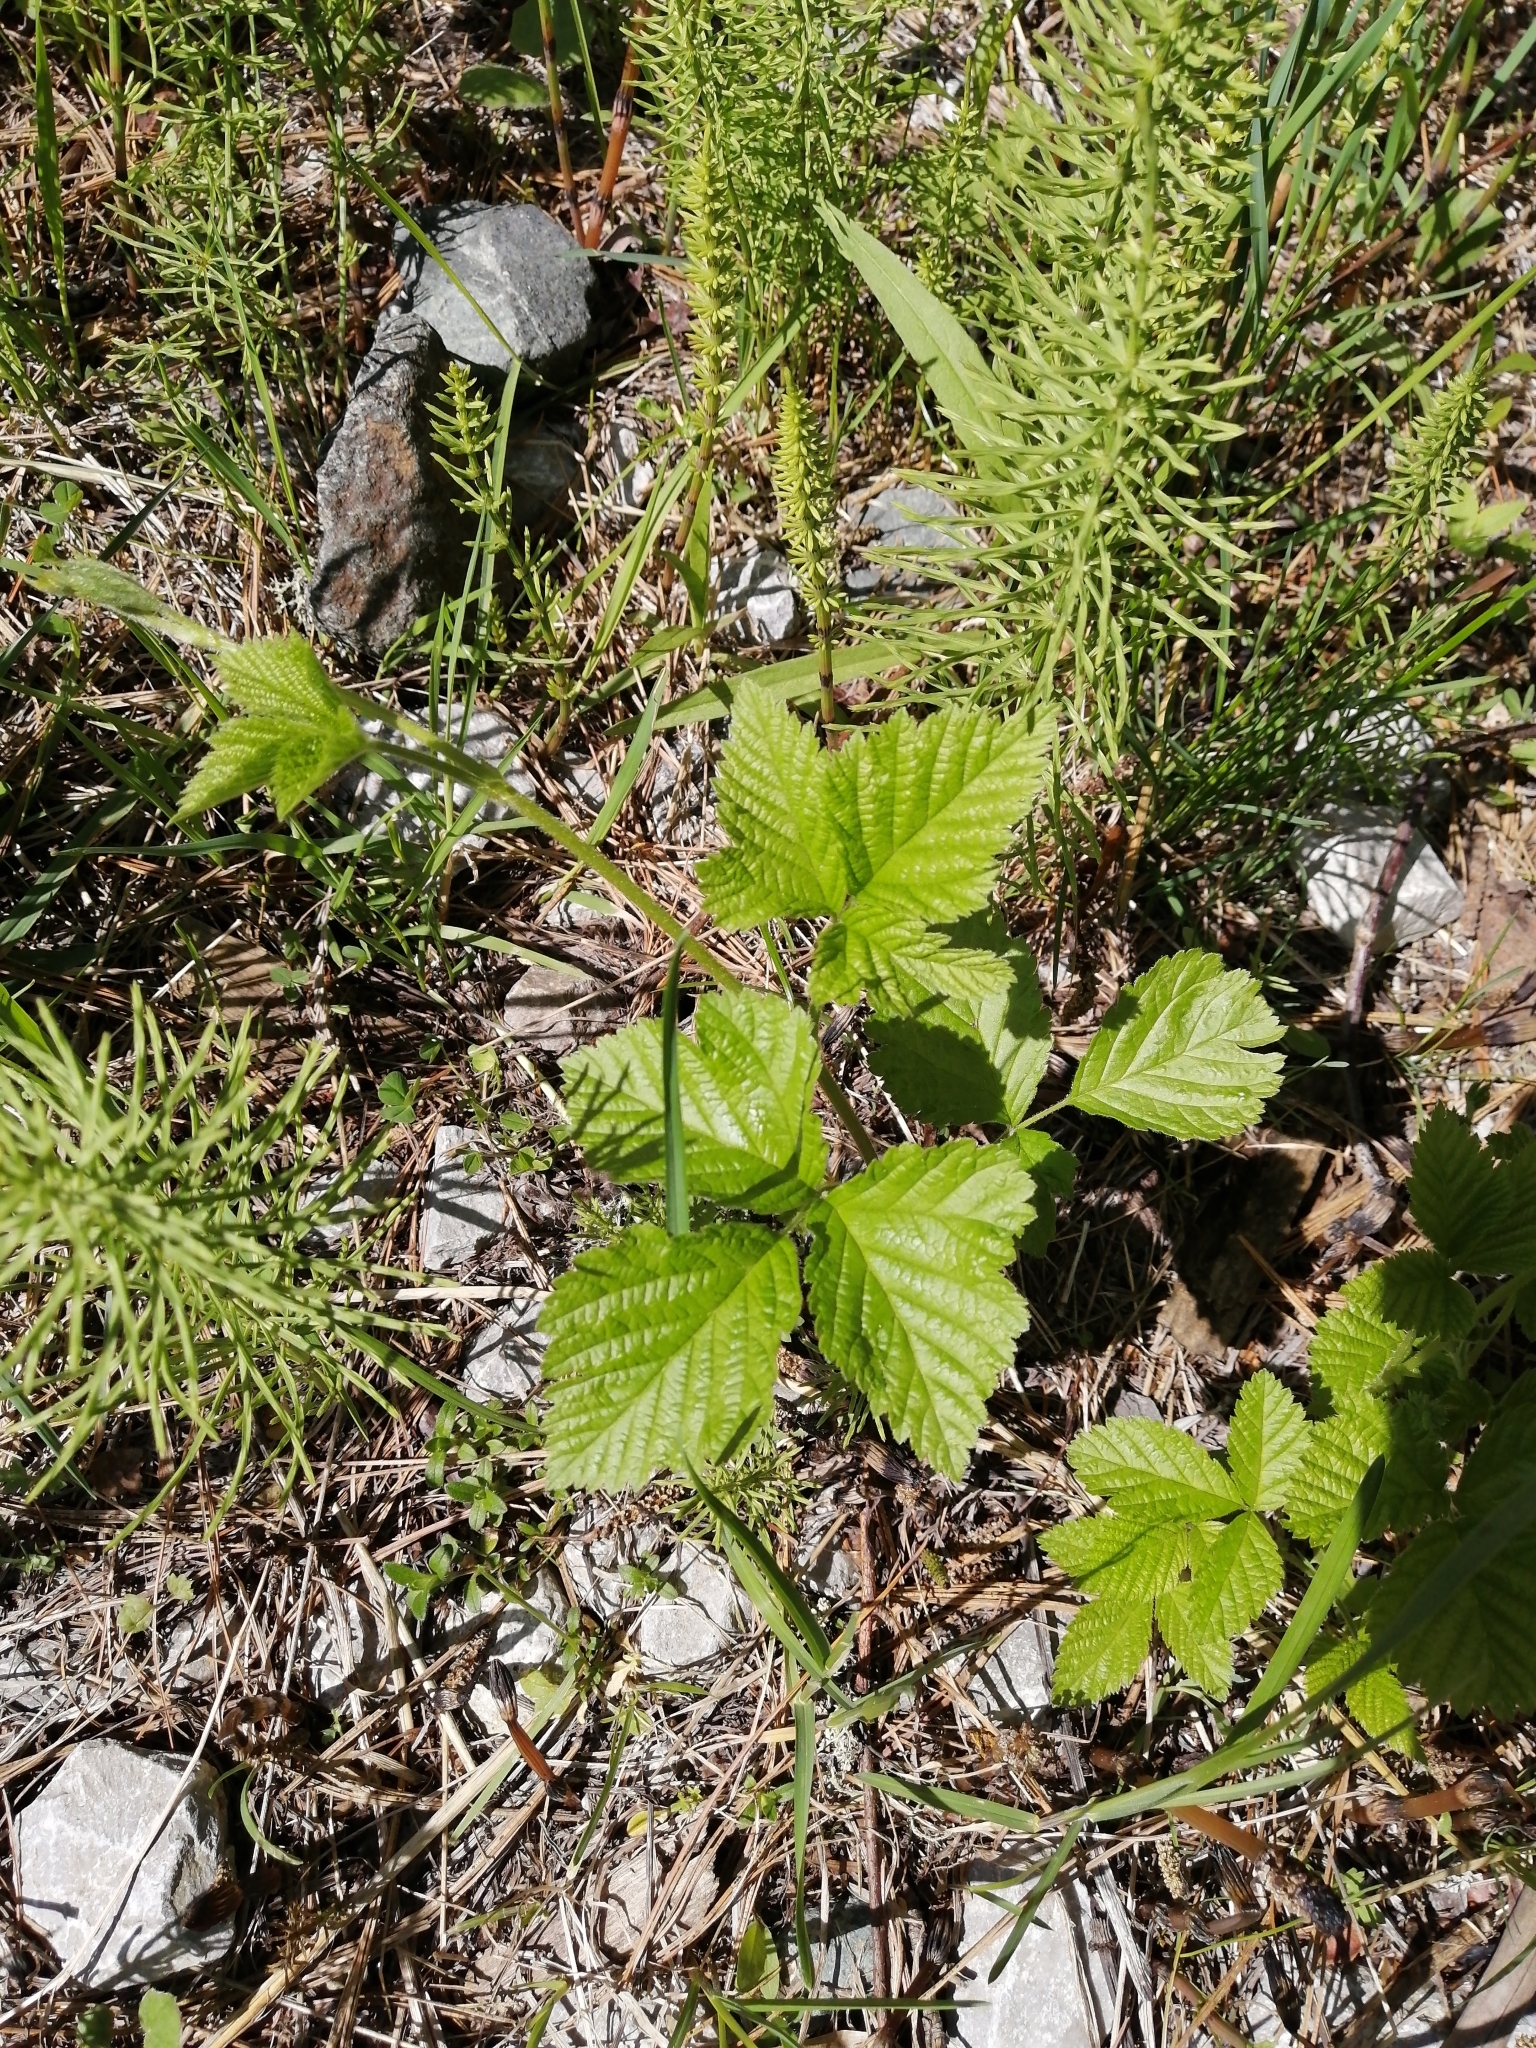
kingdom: Plantae
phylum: Tracheophyta
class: Magnoliopsida
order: Rosales
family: Rosaceae
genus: Rubus
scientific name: Rubus saxatilis
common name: Stone bramble
